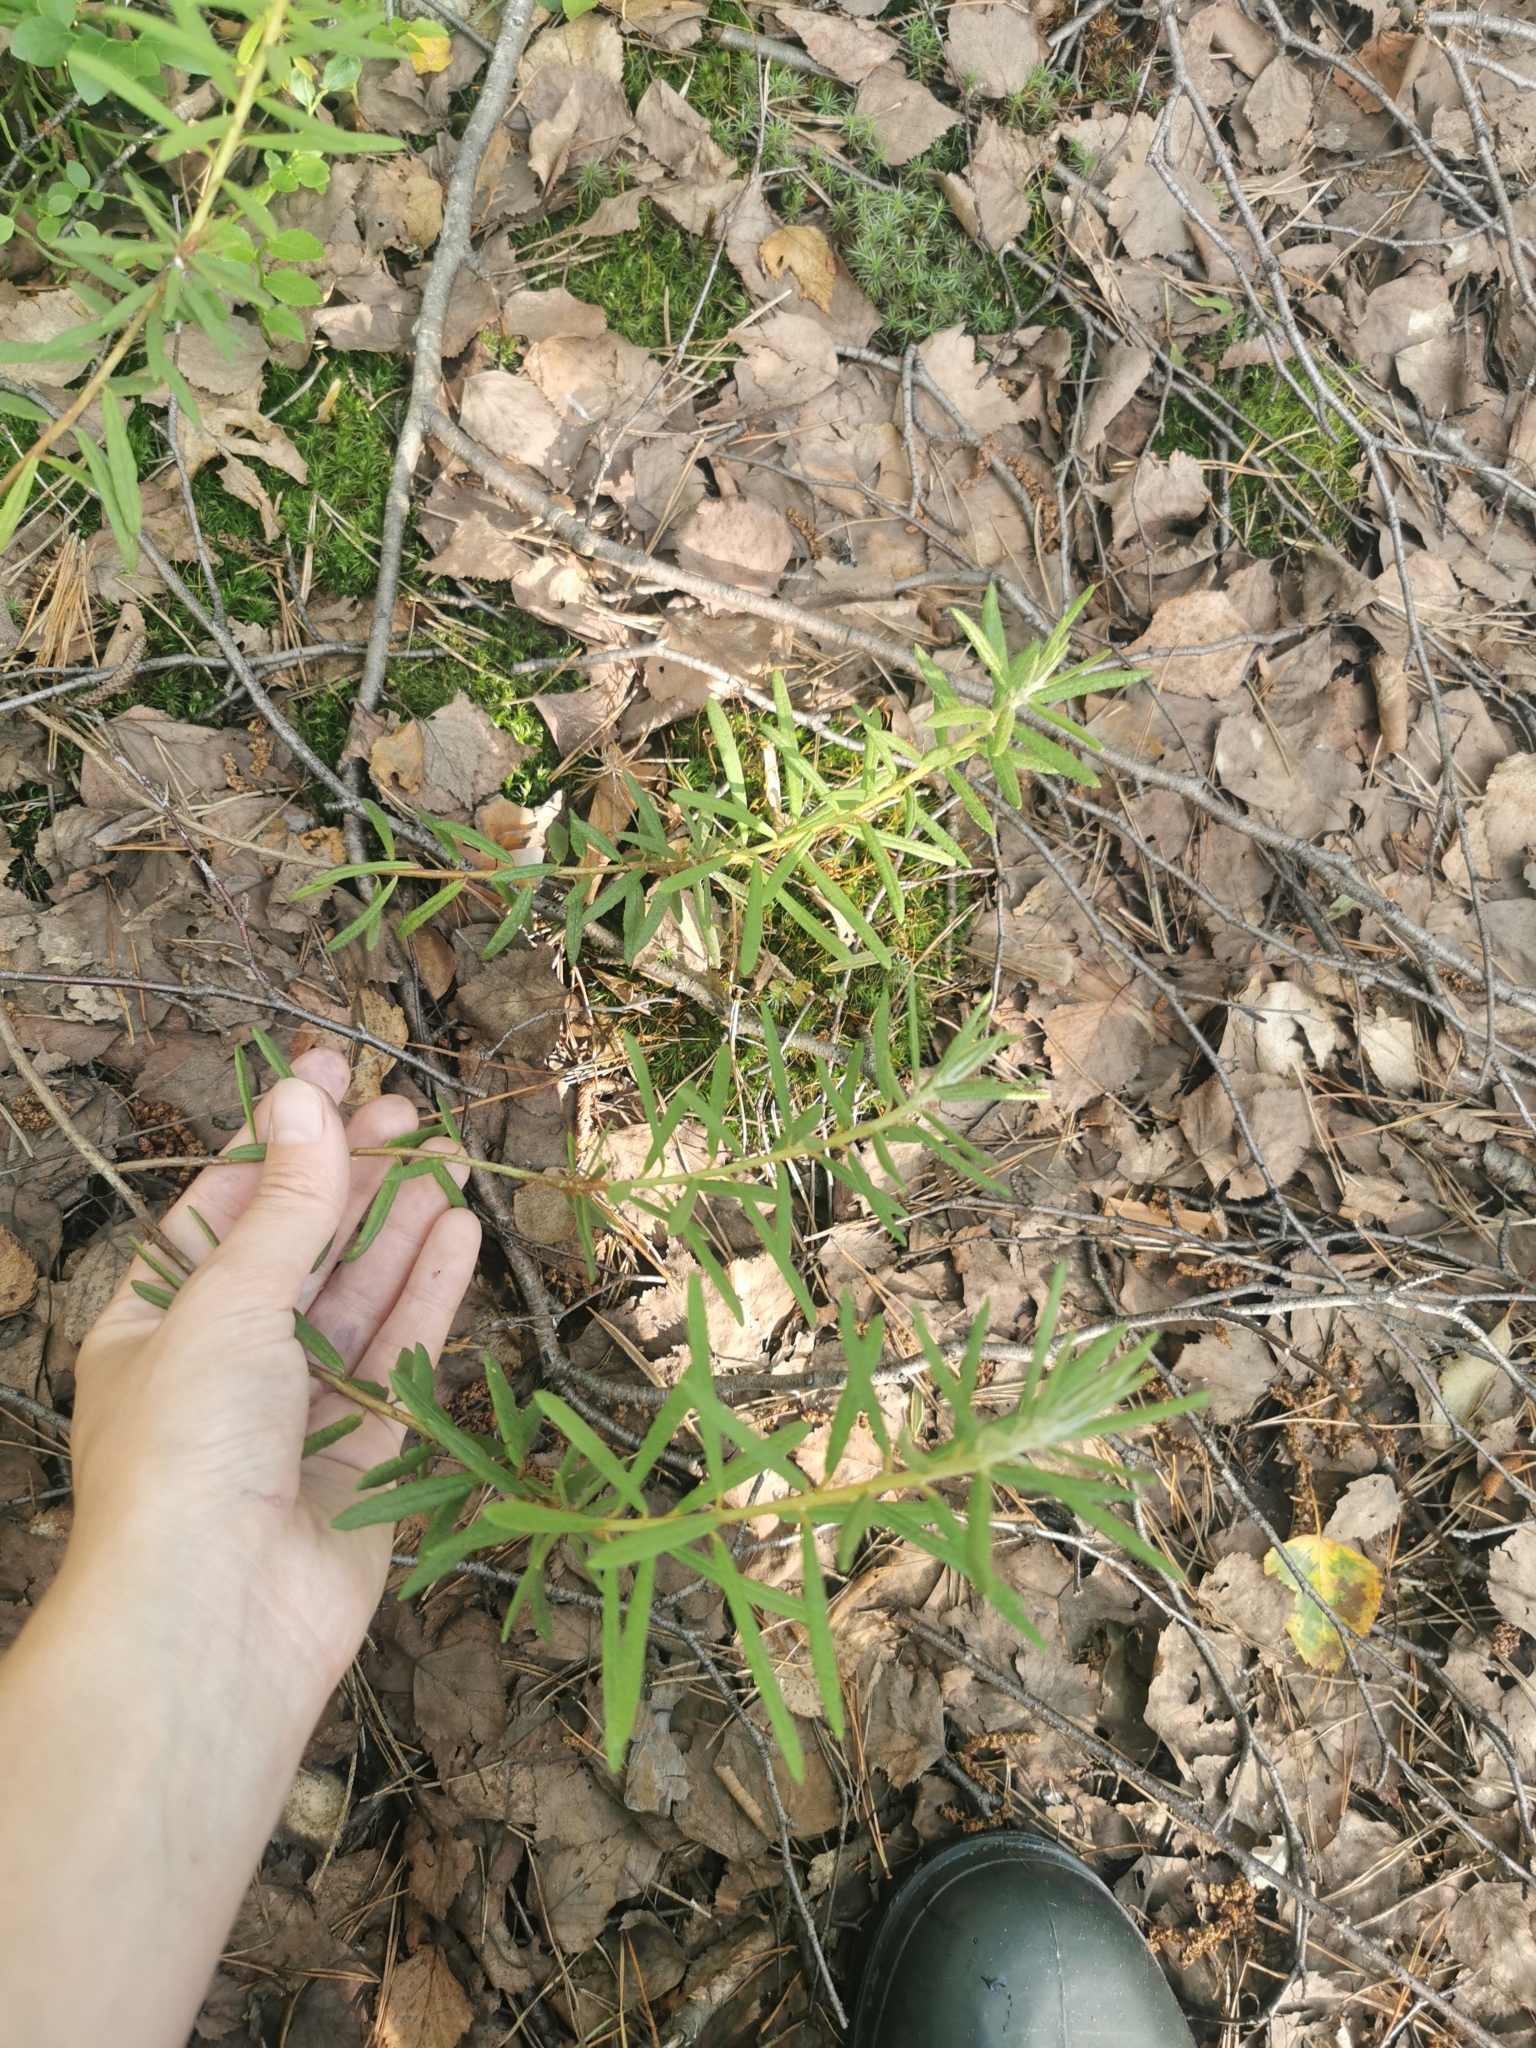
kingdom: Plantae
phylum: Tracheophyta
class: Magnoliopsida
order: Ericales
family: Ericaceae
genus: Rhododendron
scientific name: Rhododendron tomentosum
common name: Marsh labrador tea
